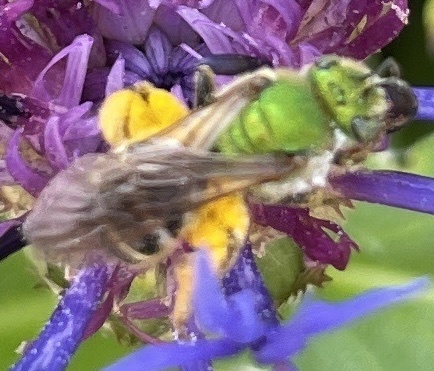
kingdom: Animalia
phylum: Arthropoda
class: Insecta
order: Hymenoptera
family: Halictidae
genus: Agapostemon
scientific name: Agapostemon virescens
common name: Bicolored striped sweat bee
